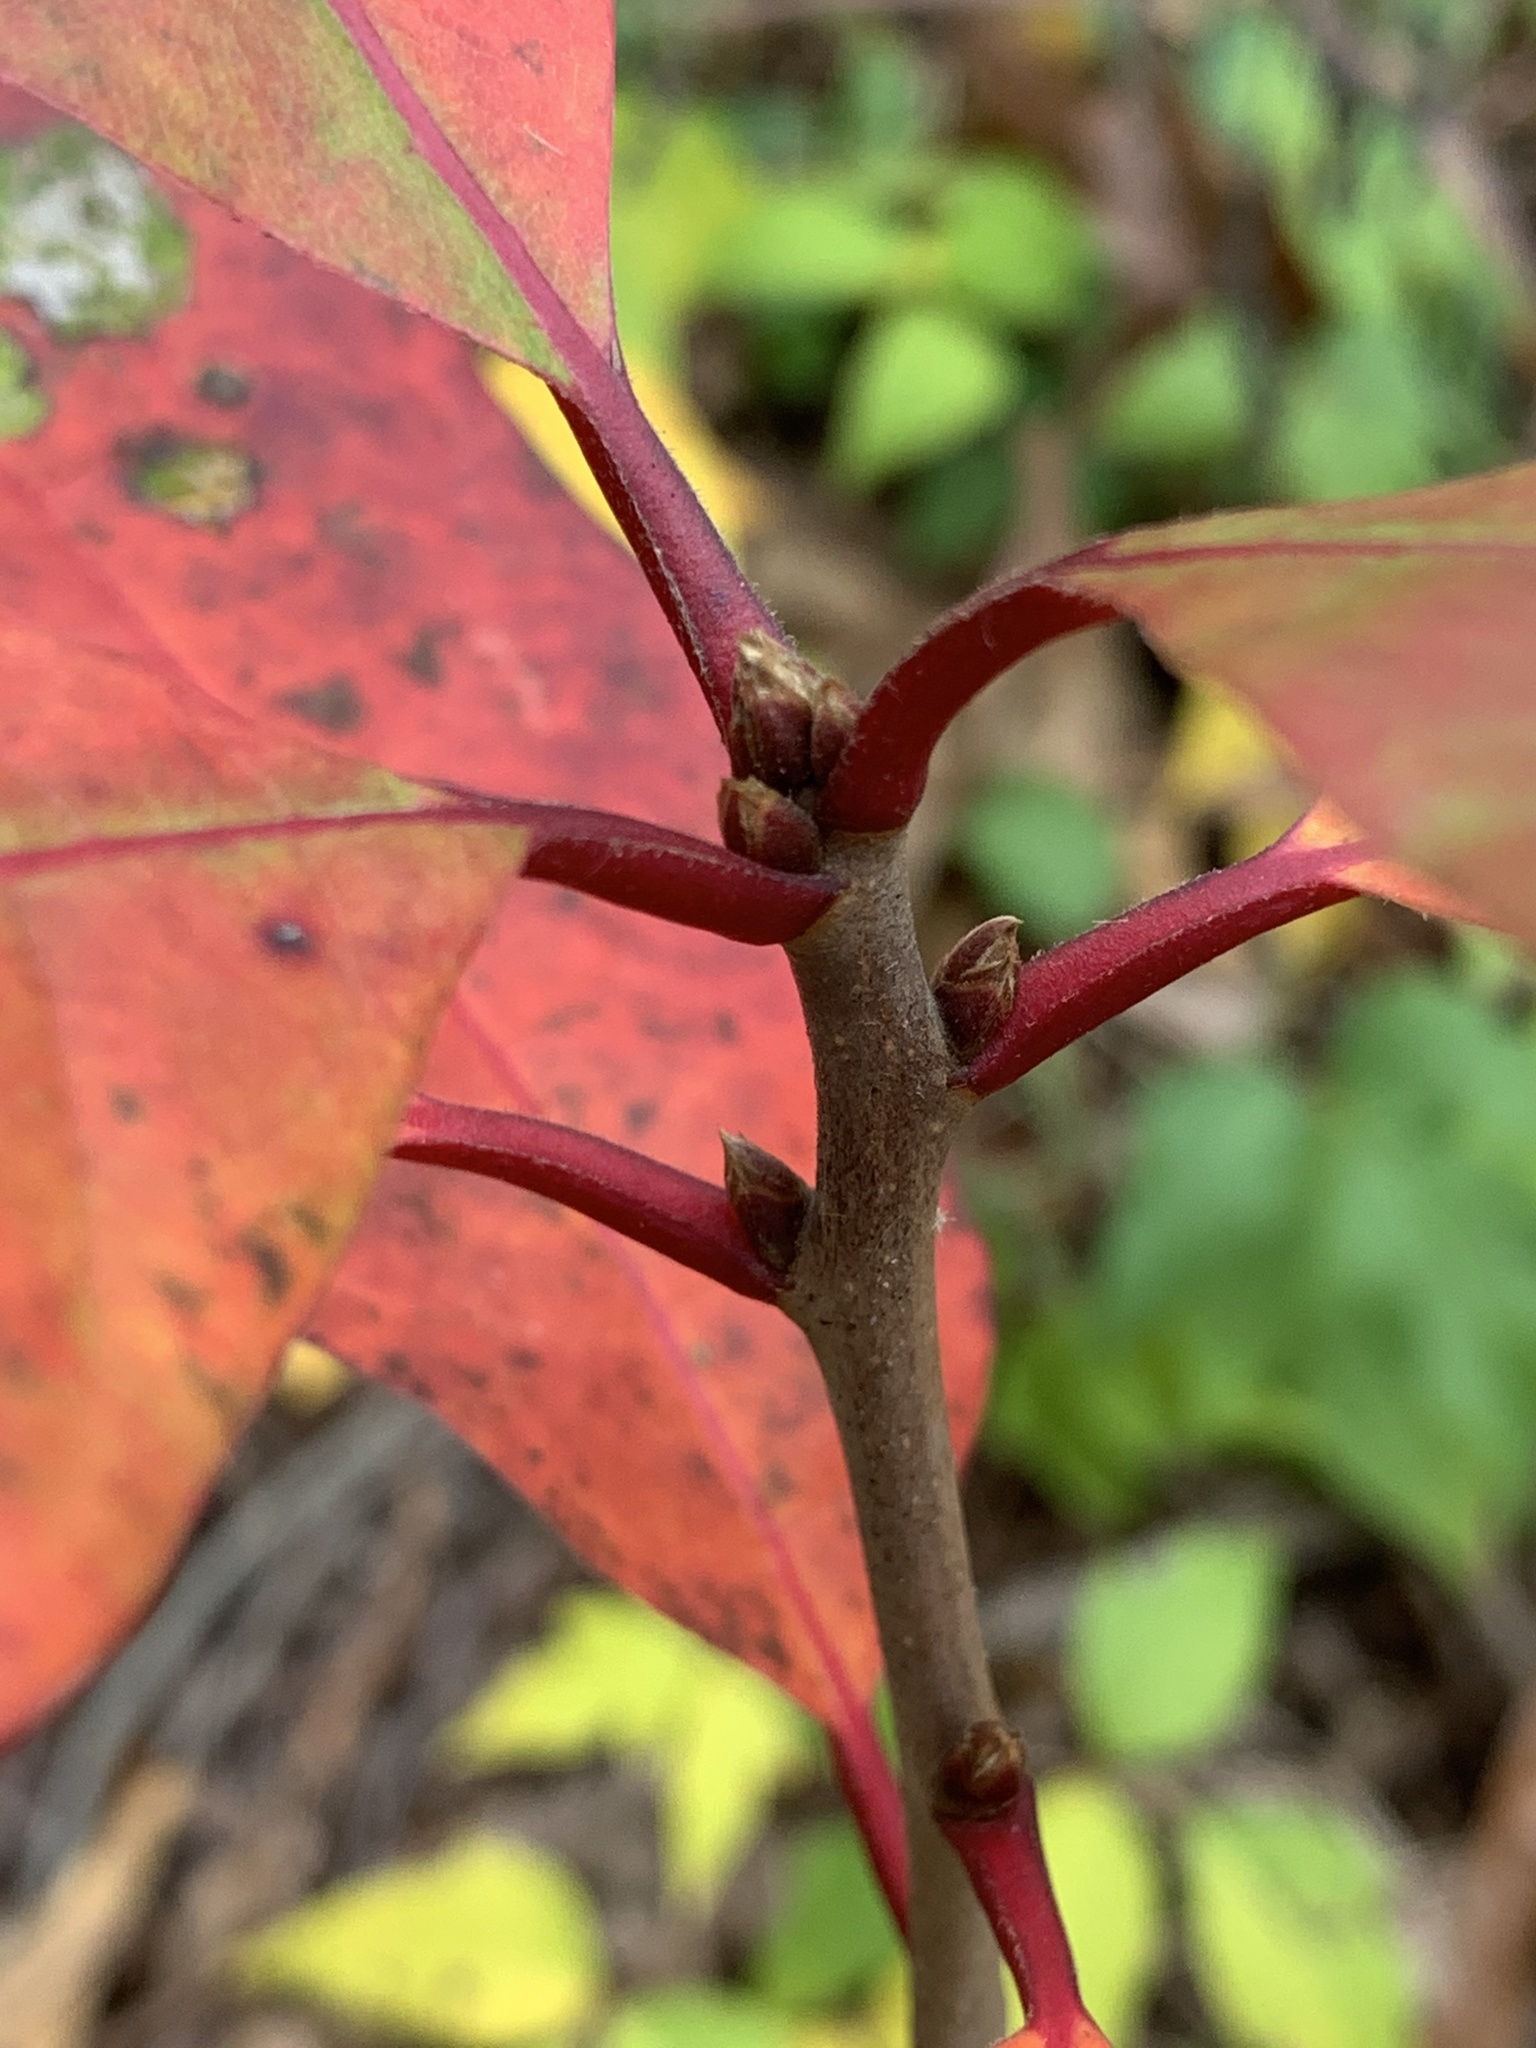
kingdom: Plantae
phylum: Tracheophyta
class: Magnoliopsida
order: Cornales
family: Nyssaceae
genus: Nyssa
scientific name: Nyssa sylvatica
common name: Black tupelo
